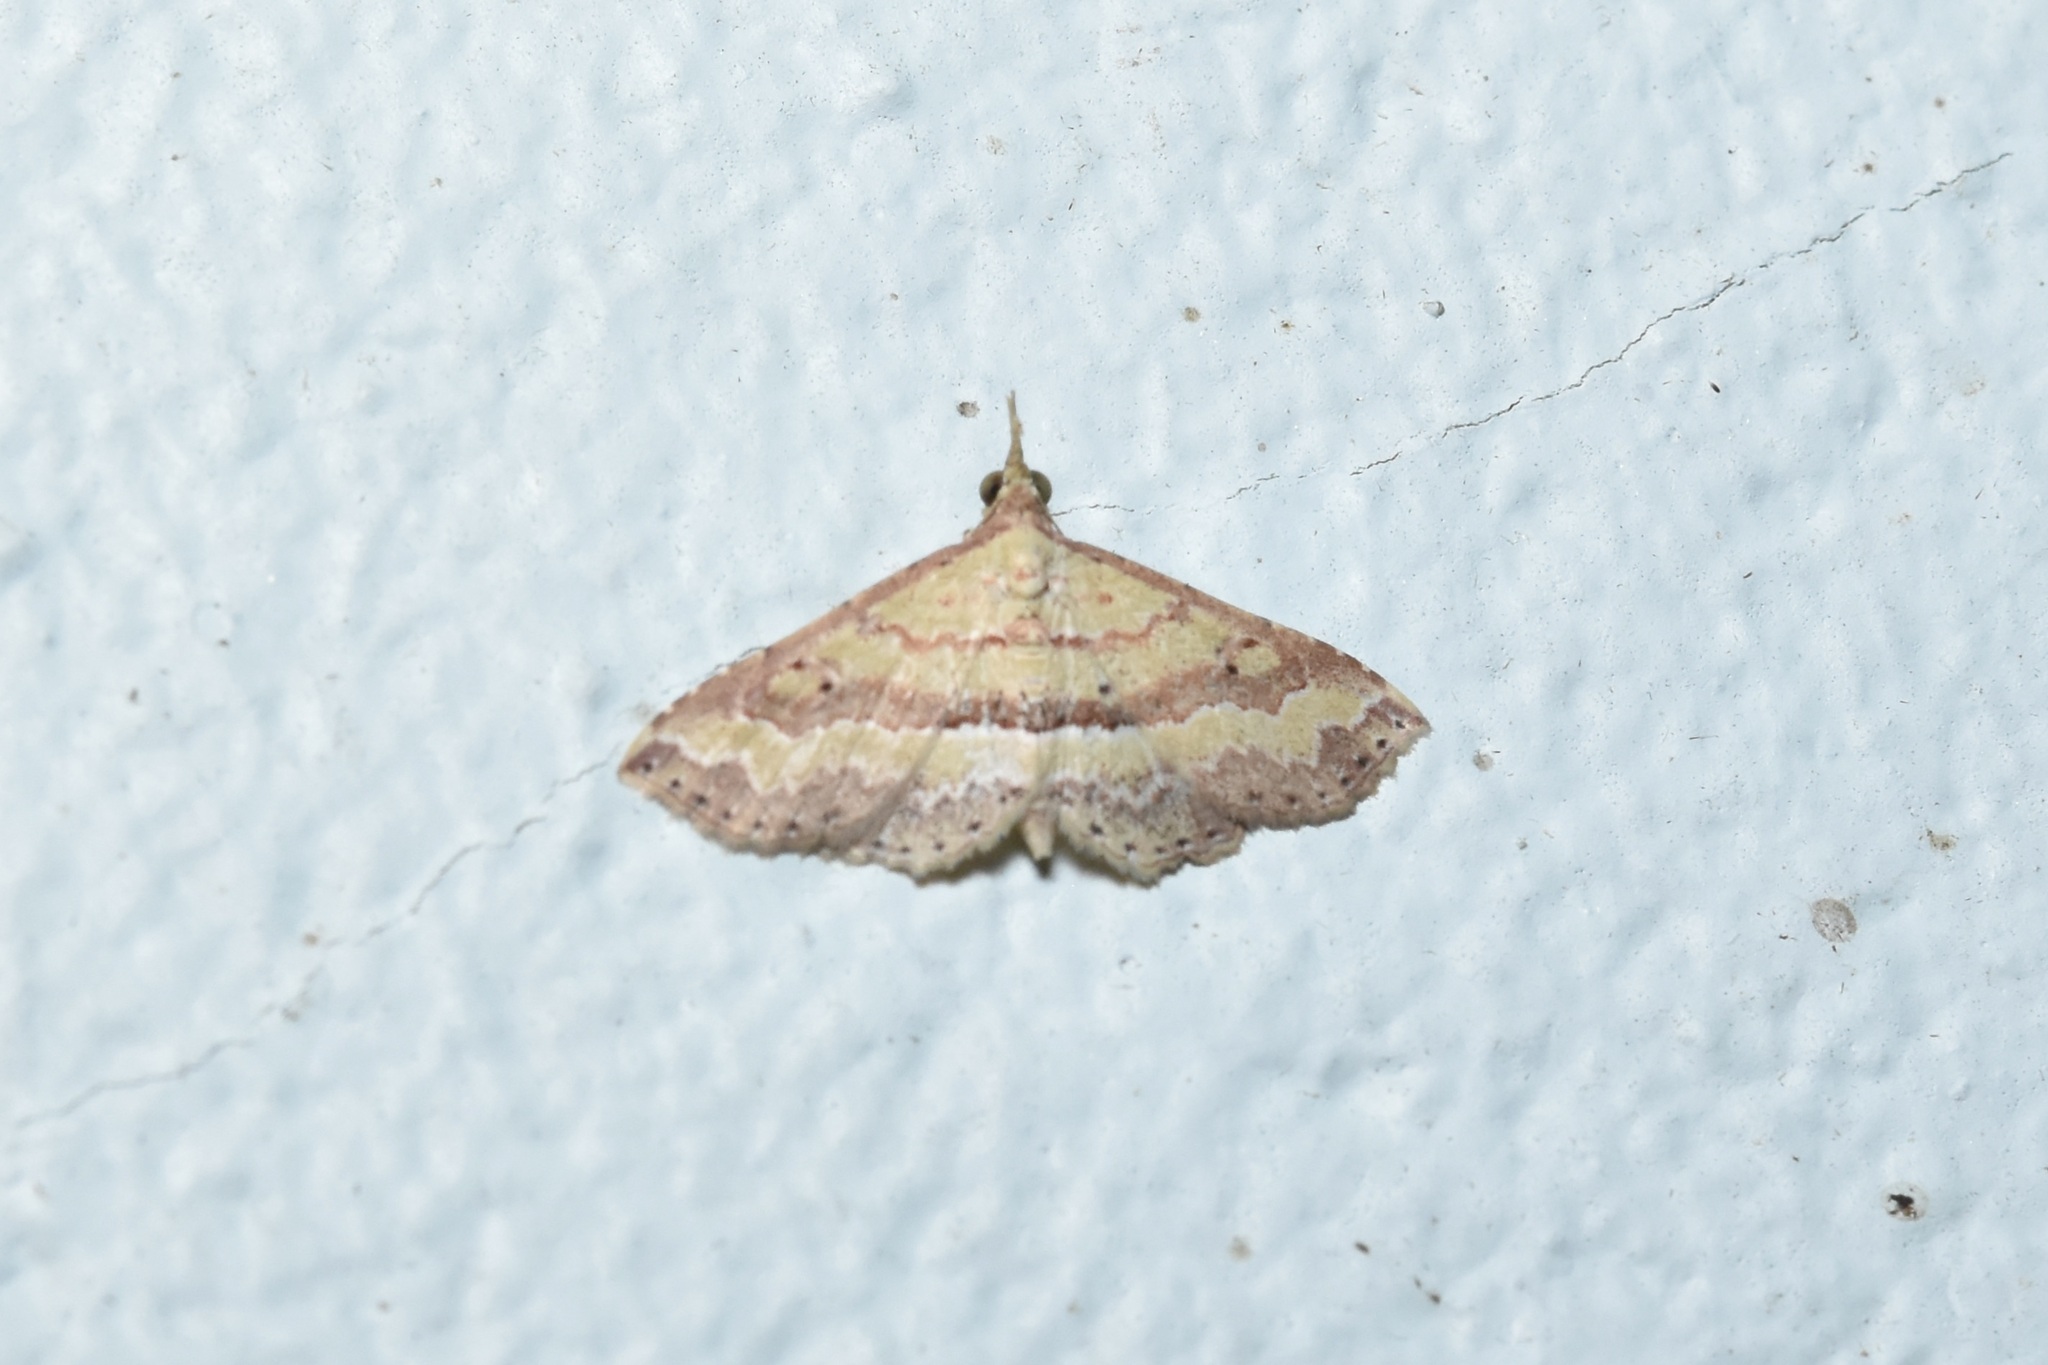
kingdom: Animalia
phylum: Arthropoda
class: Insecta
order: Lepidoptera
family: Erebidae
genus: Mursa
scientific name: Mursa phtisialis
